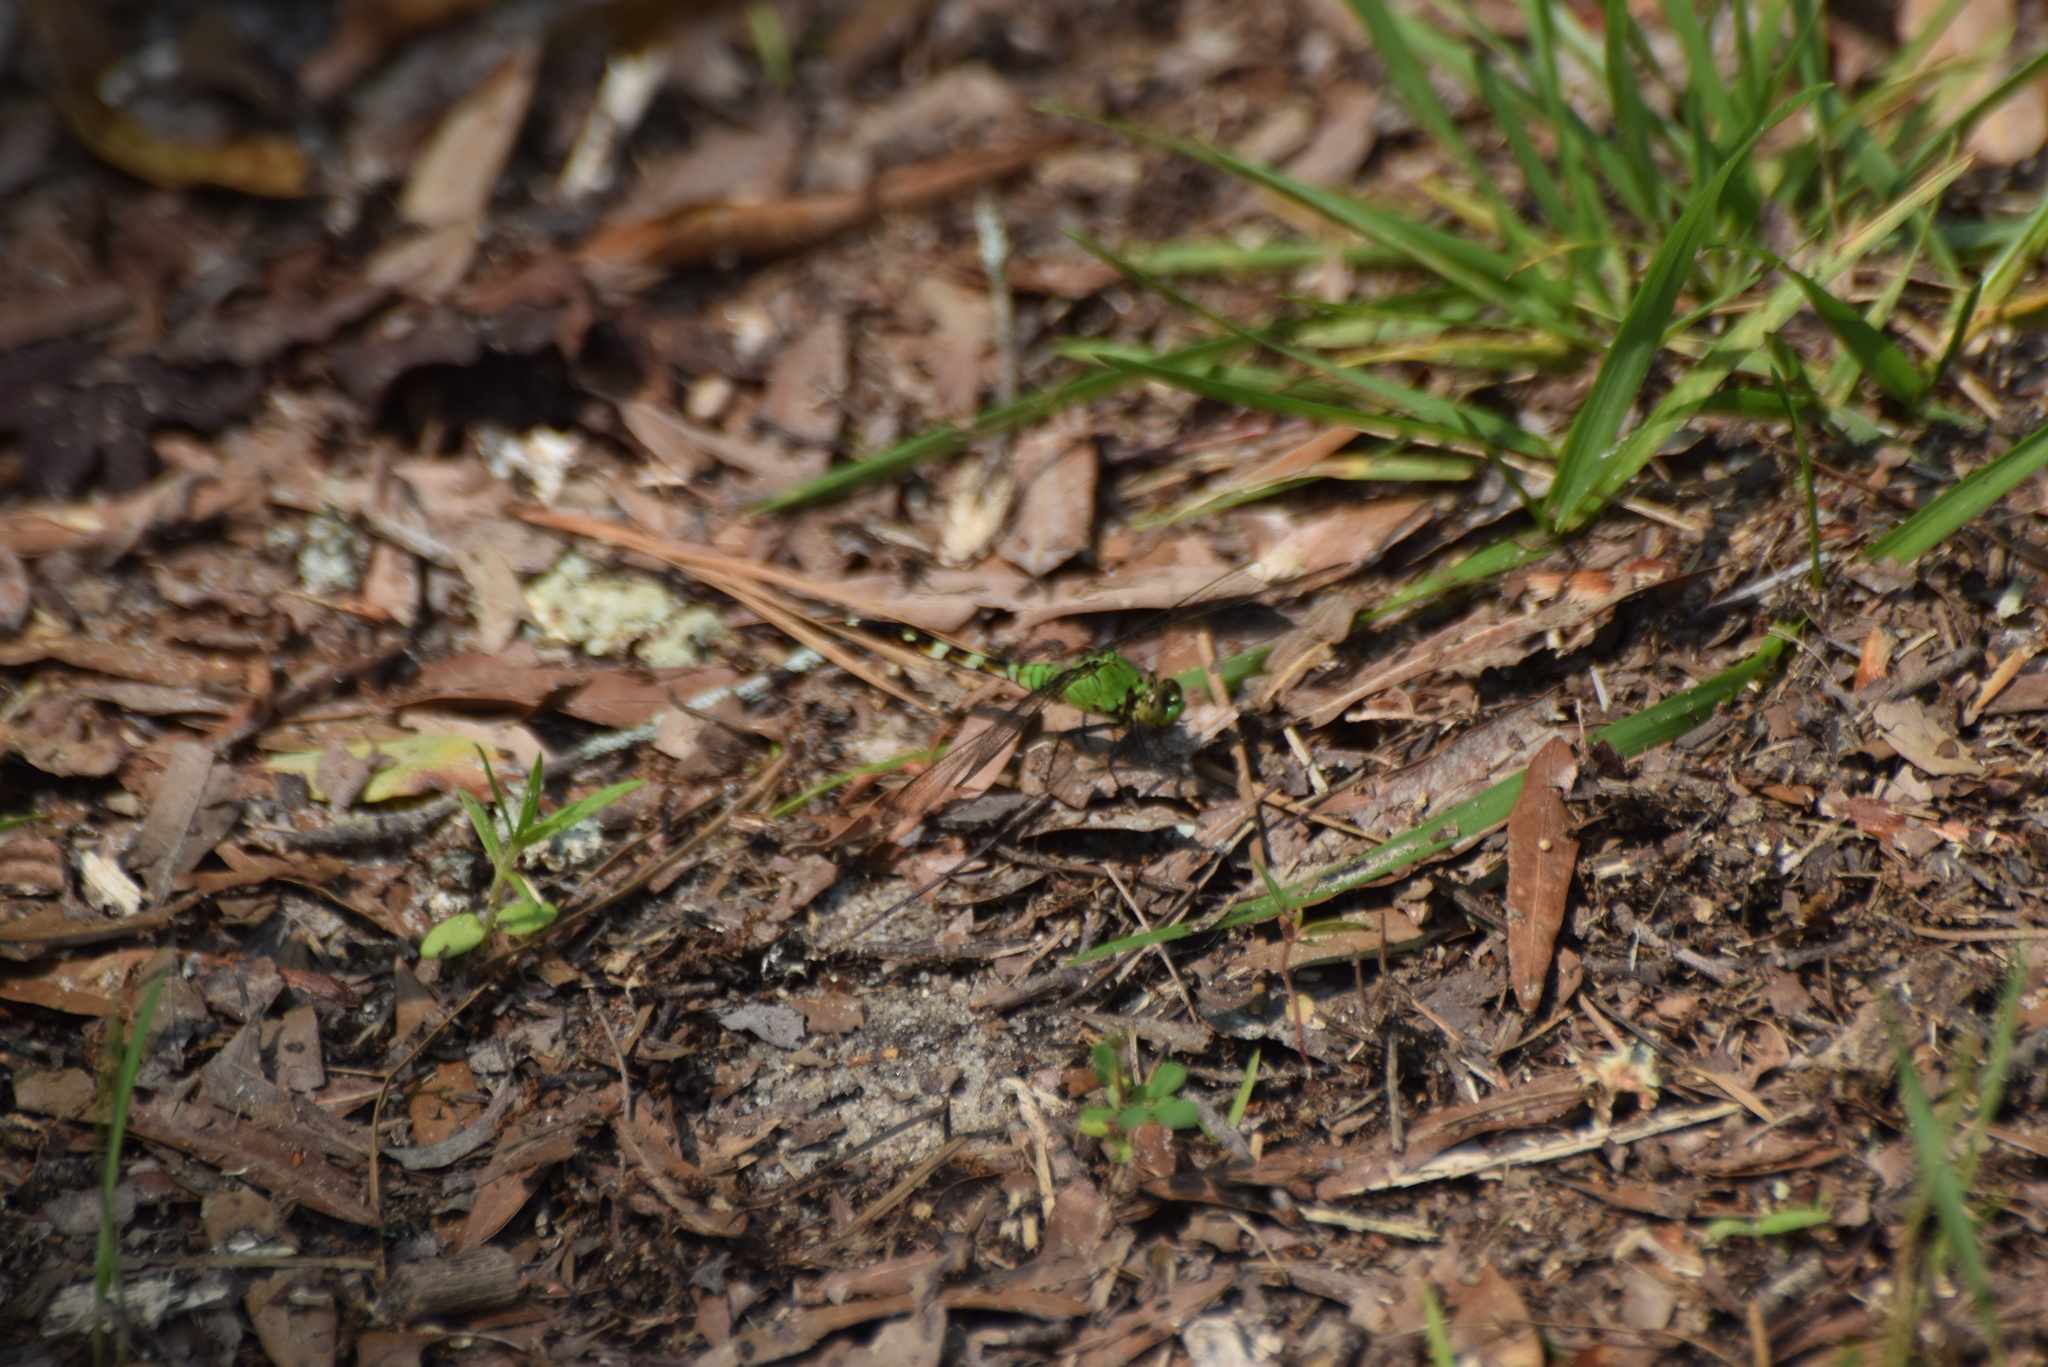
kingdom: Animalia
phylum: Arthropoda
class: Insecta
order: Odonata
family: Libellulidae
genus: Erythemis
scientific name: Erythemis simplicicollis
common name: Eastern pondhawk
